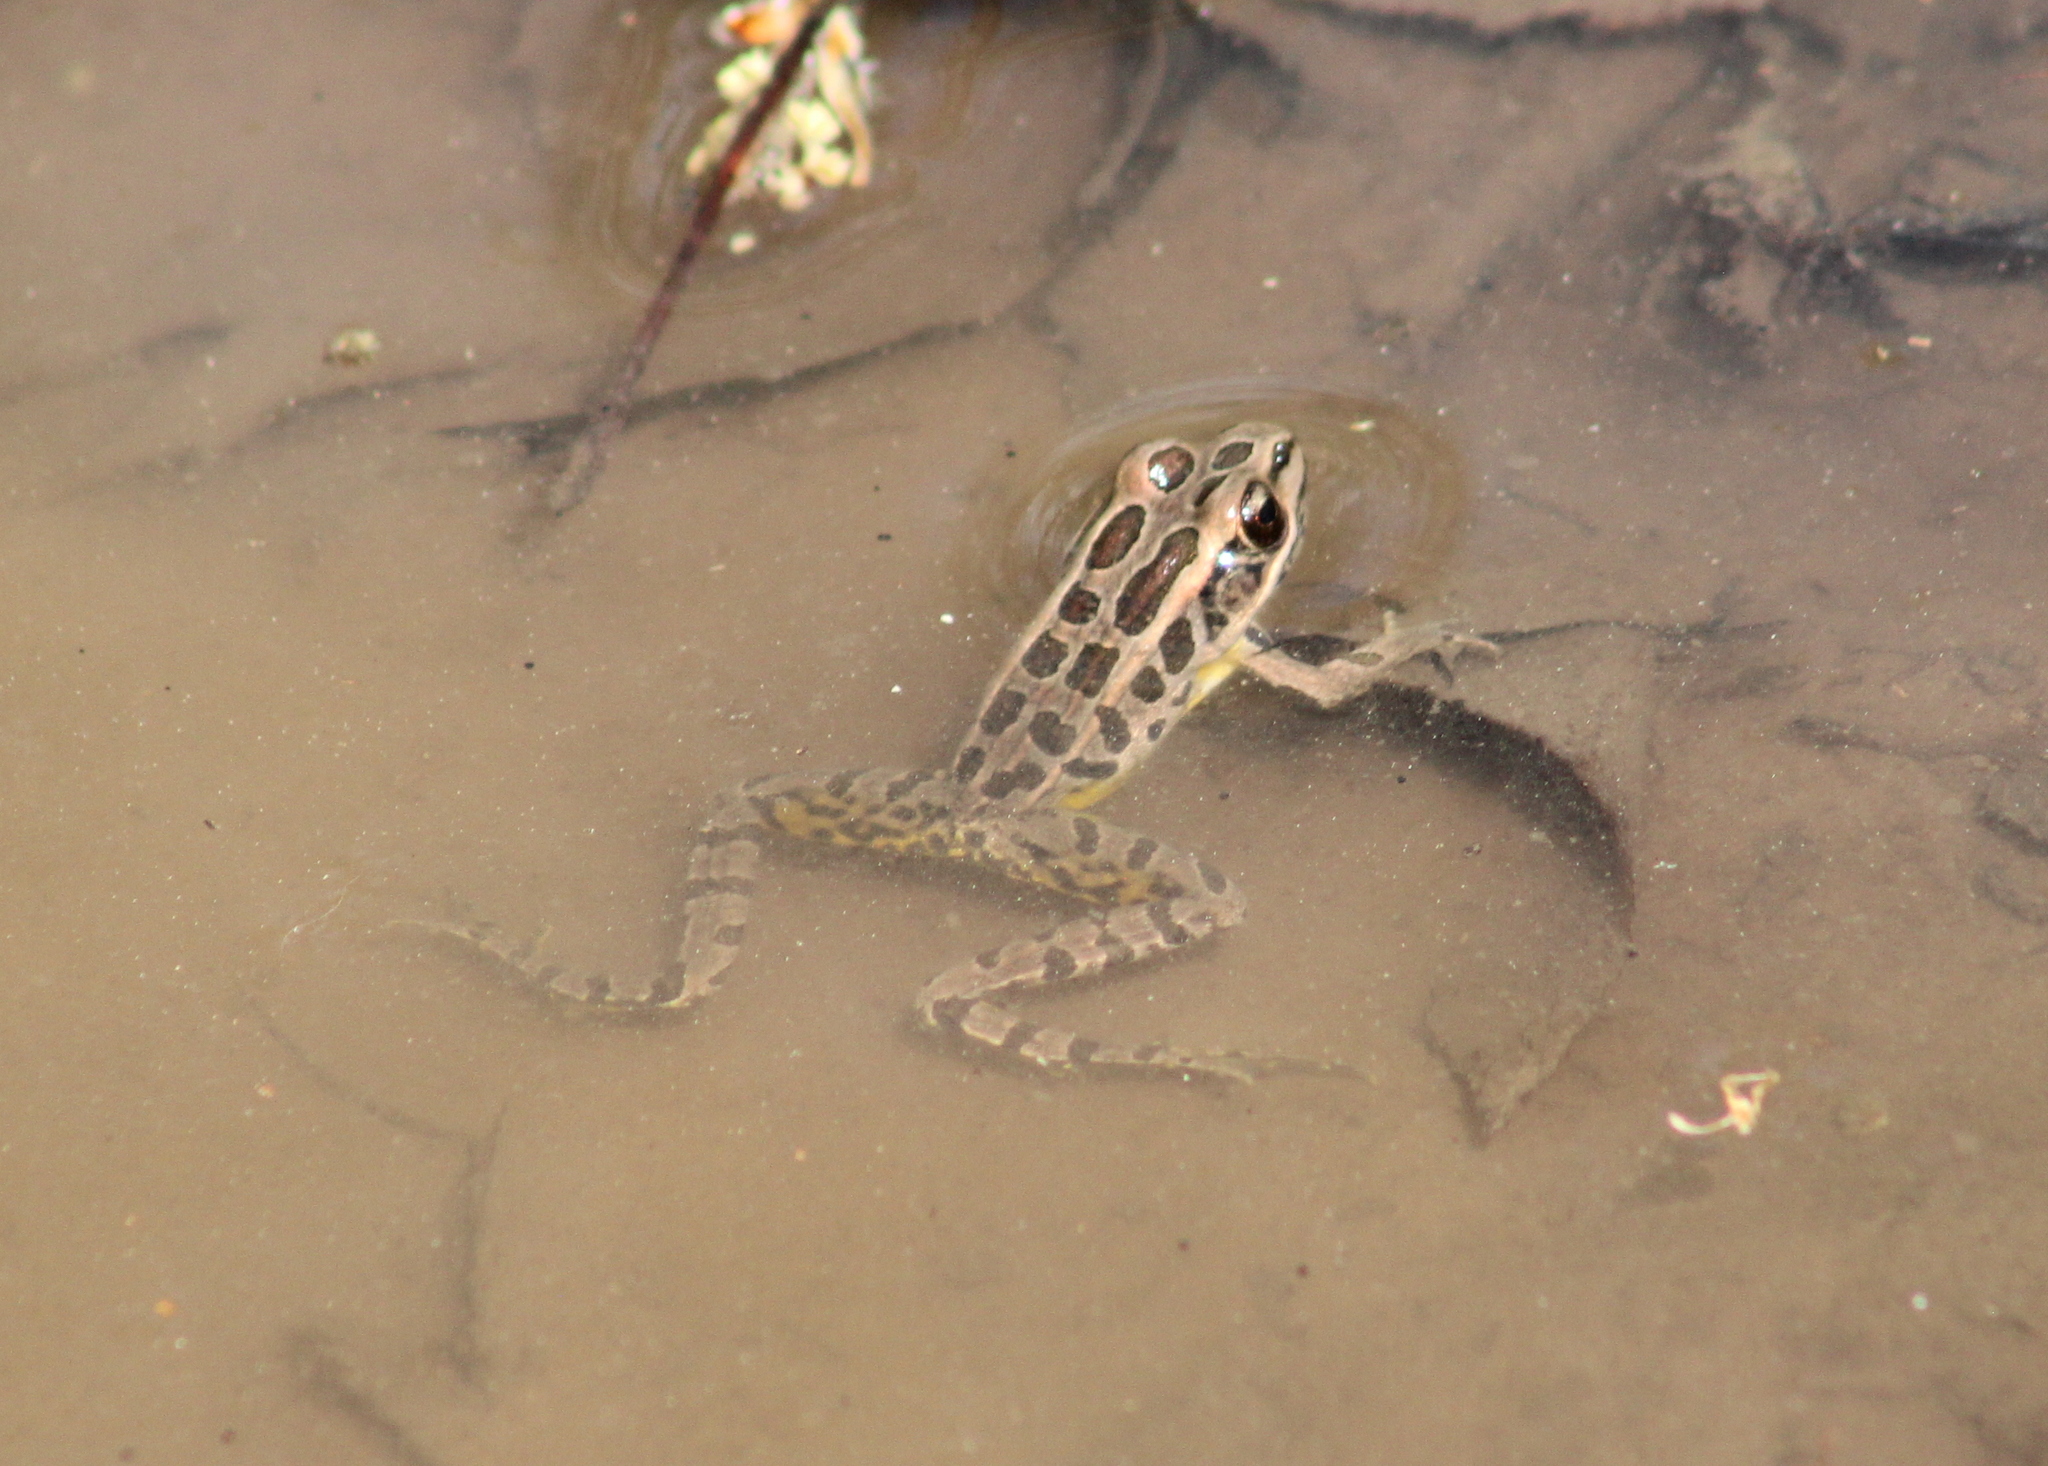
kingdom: Animalia
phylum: Chordata
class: Amphibia
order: Anura
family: Ranidae
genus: Lithobates
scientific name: Lithobates palustris
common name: Pickerel frog
